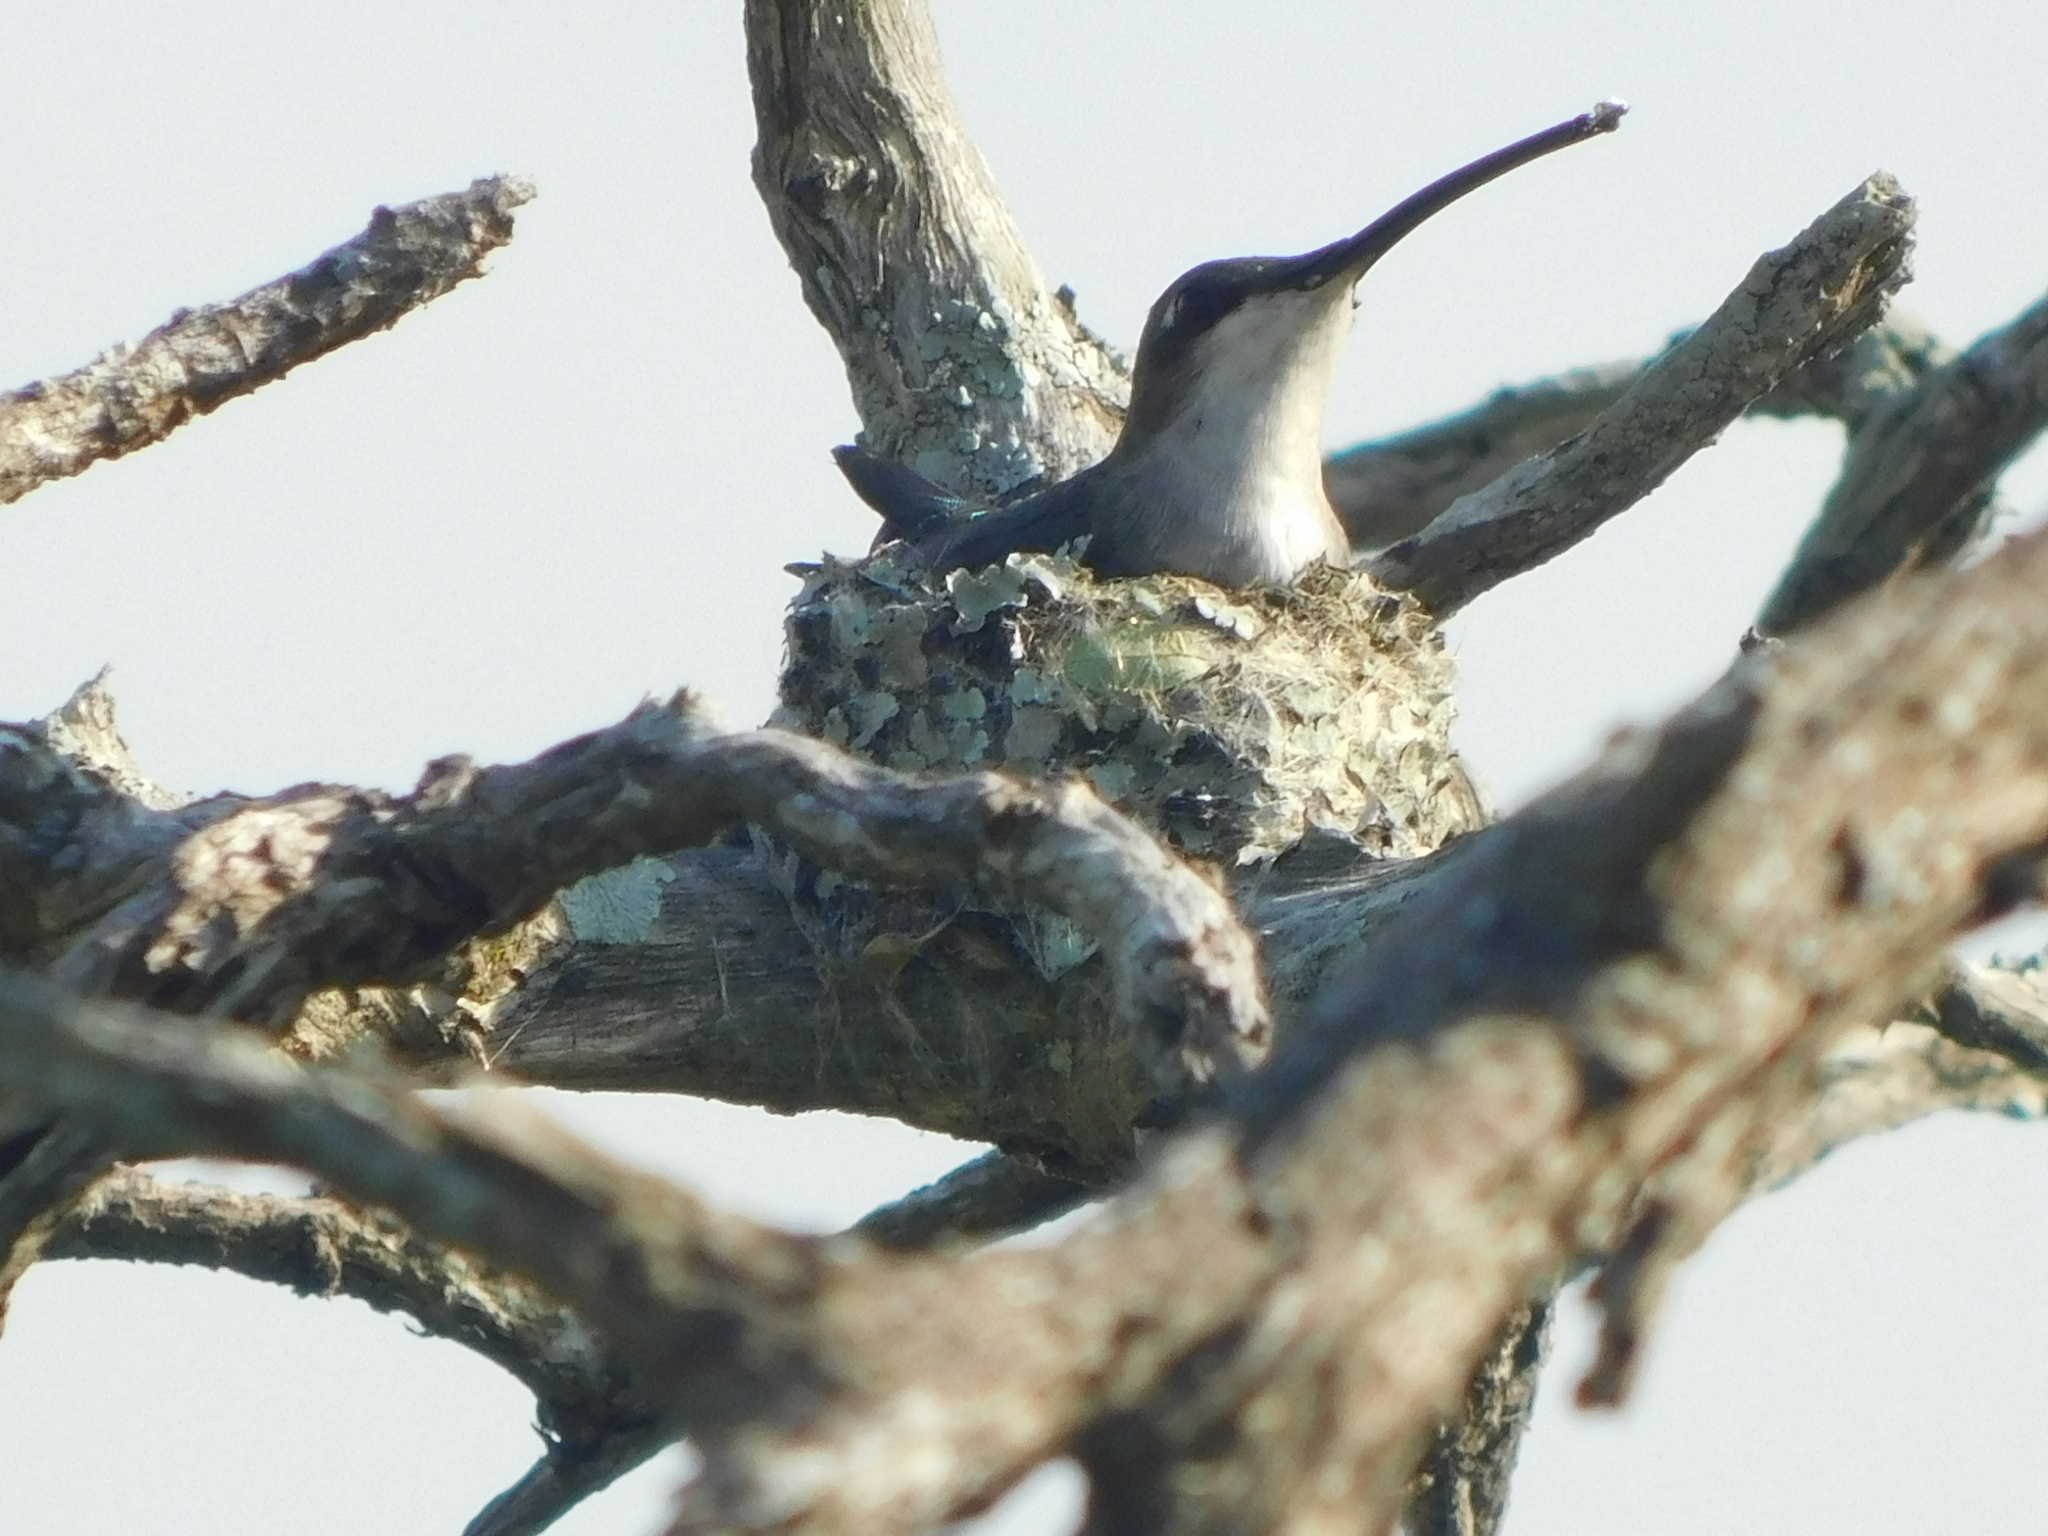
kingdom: Animalia
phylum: Chordata
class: Aves
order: Apodiformes
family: Trochilidae
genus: Heliomaster
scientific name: Heliomaster furcifer
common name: Blue-tufted starthroat
